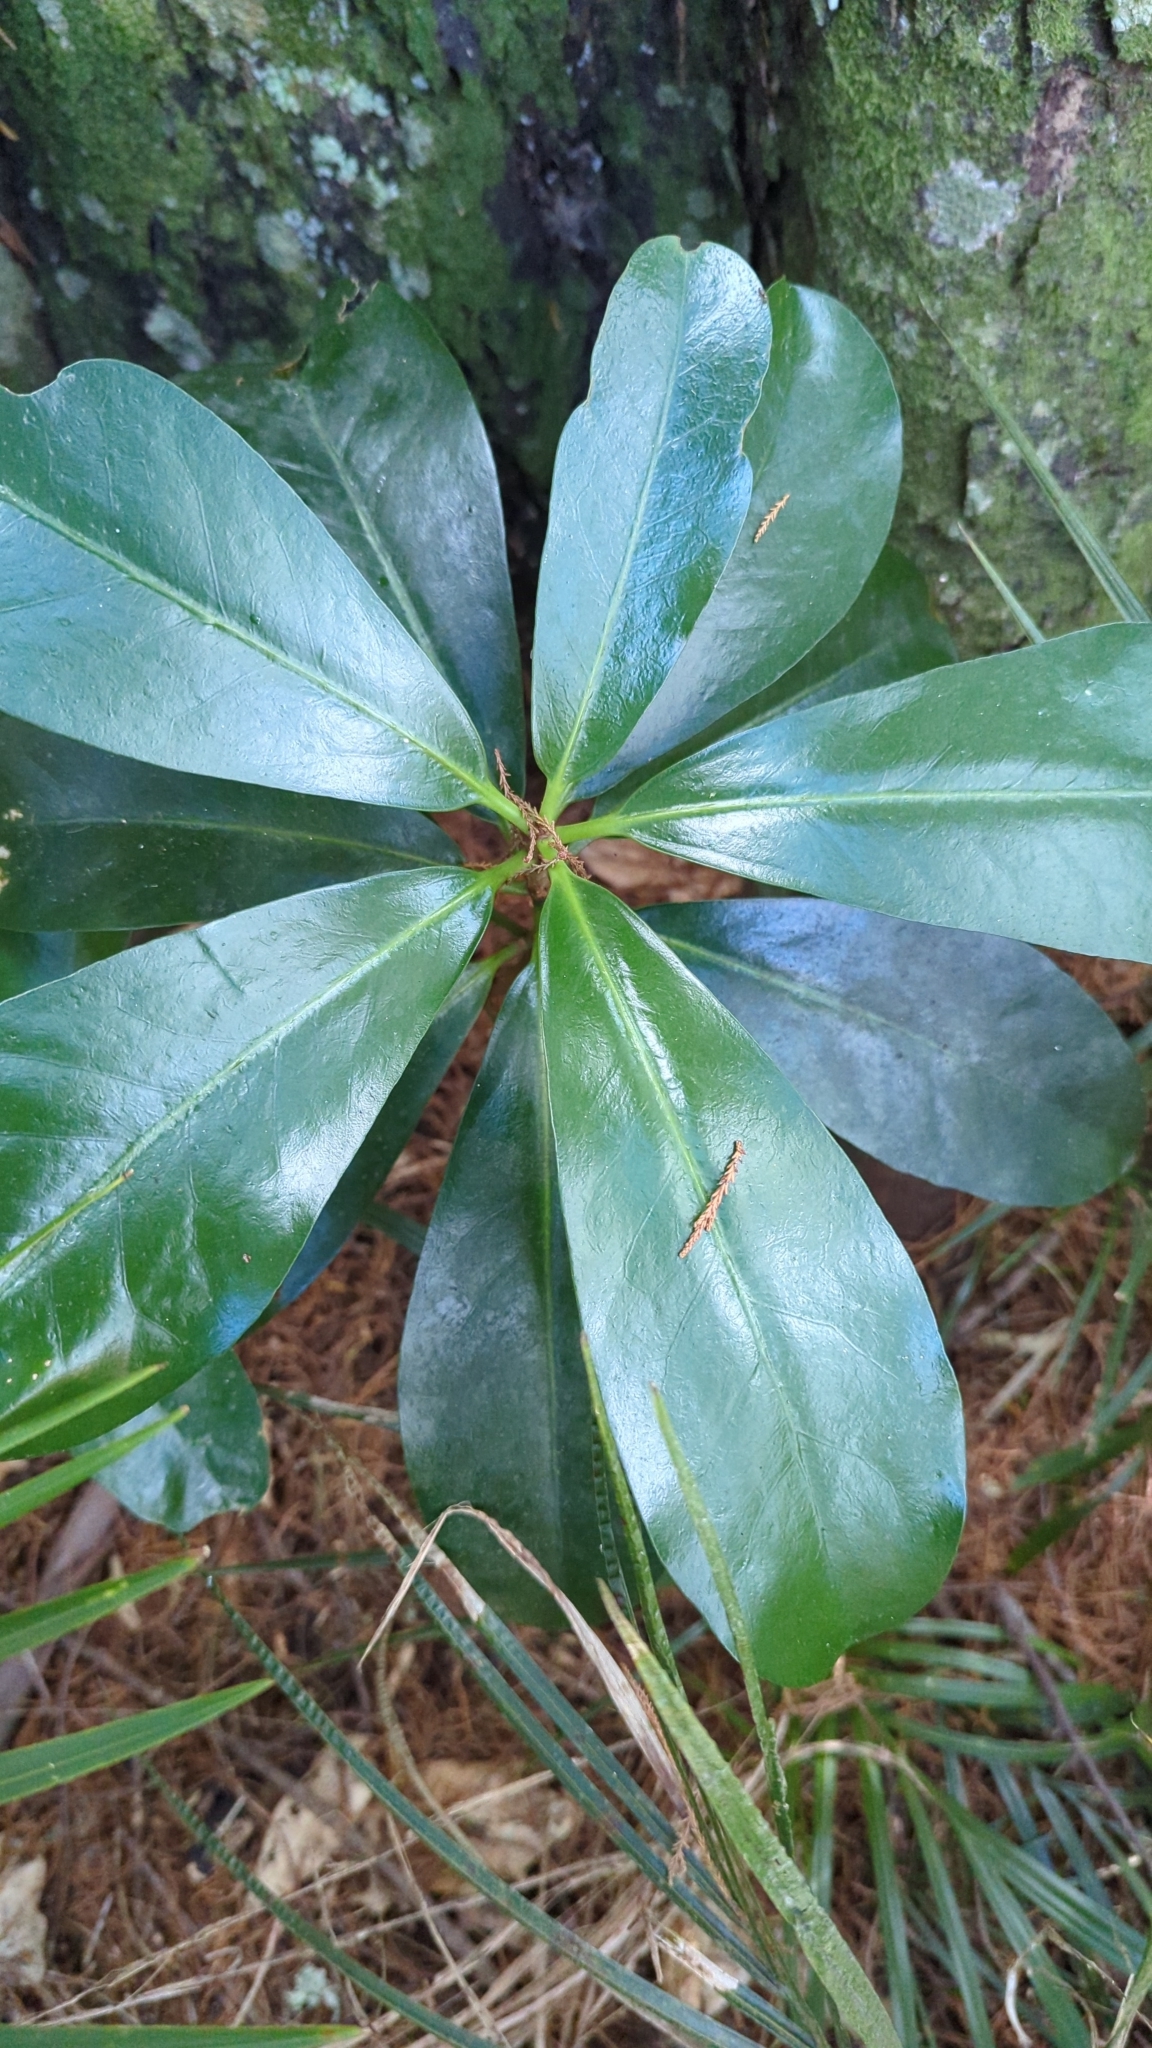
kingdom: Plantae
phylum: Tracheophyta
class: Magnoliopsida
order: Cucurbitales
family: Corynocarpaceae
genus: Corynocarpus
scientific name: Corynocarpus laevigatus
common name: New zealand laurel
